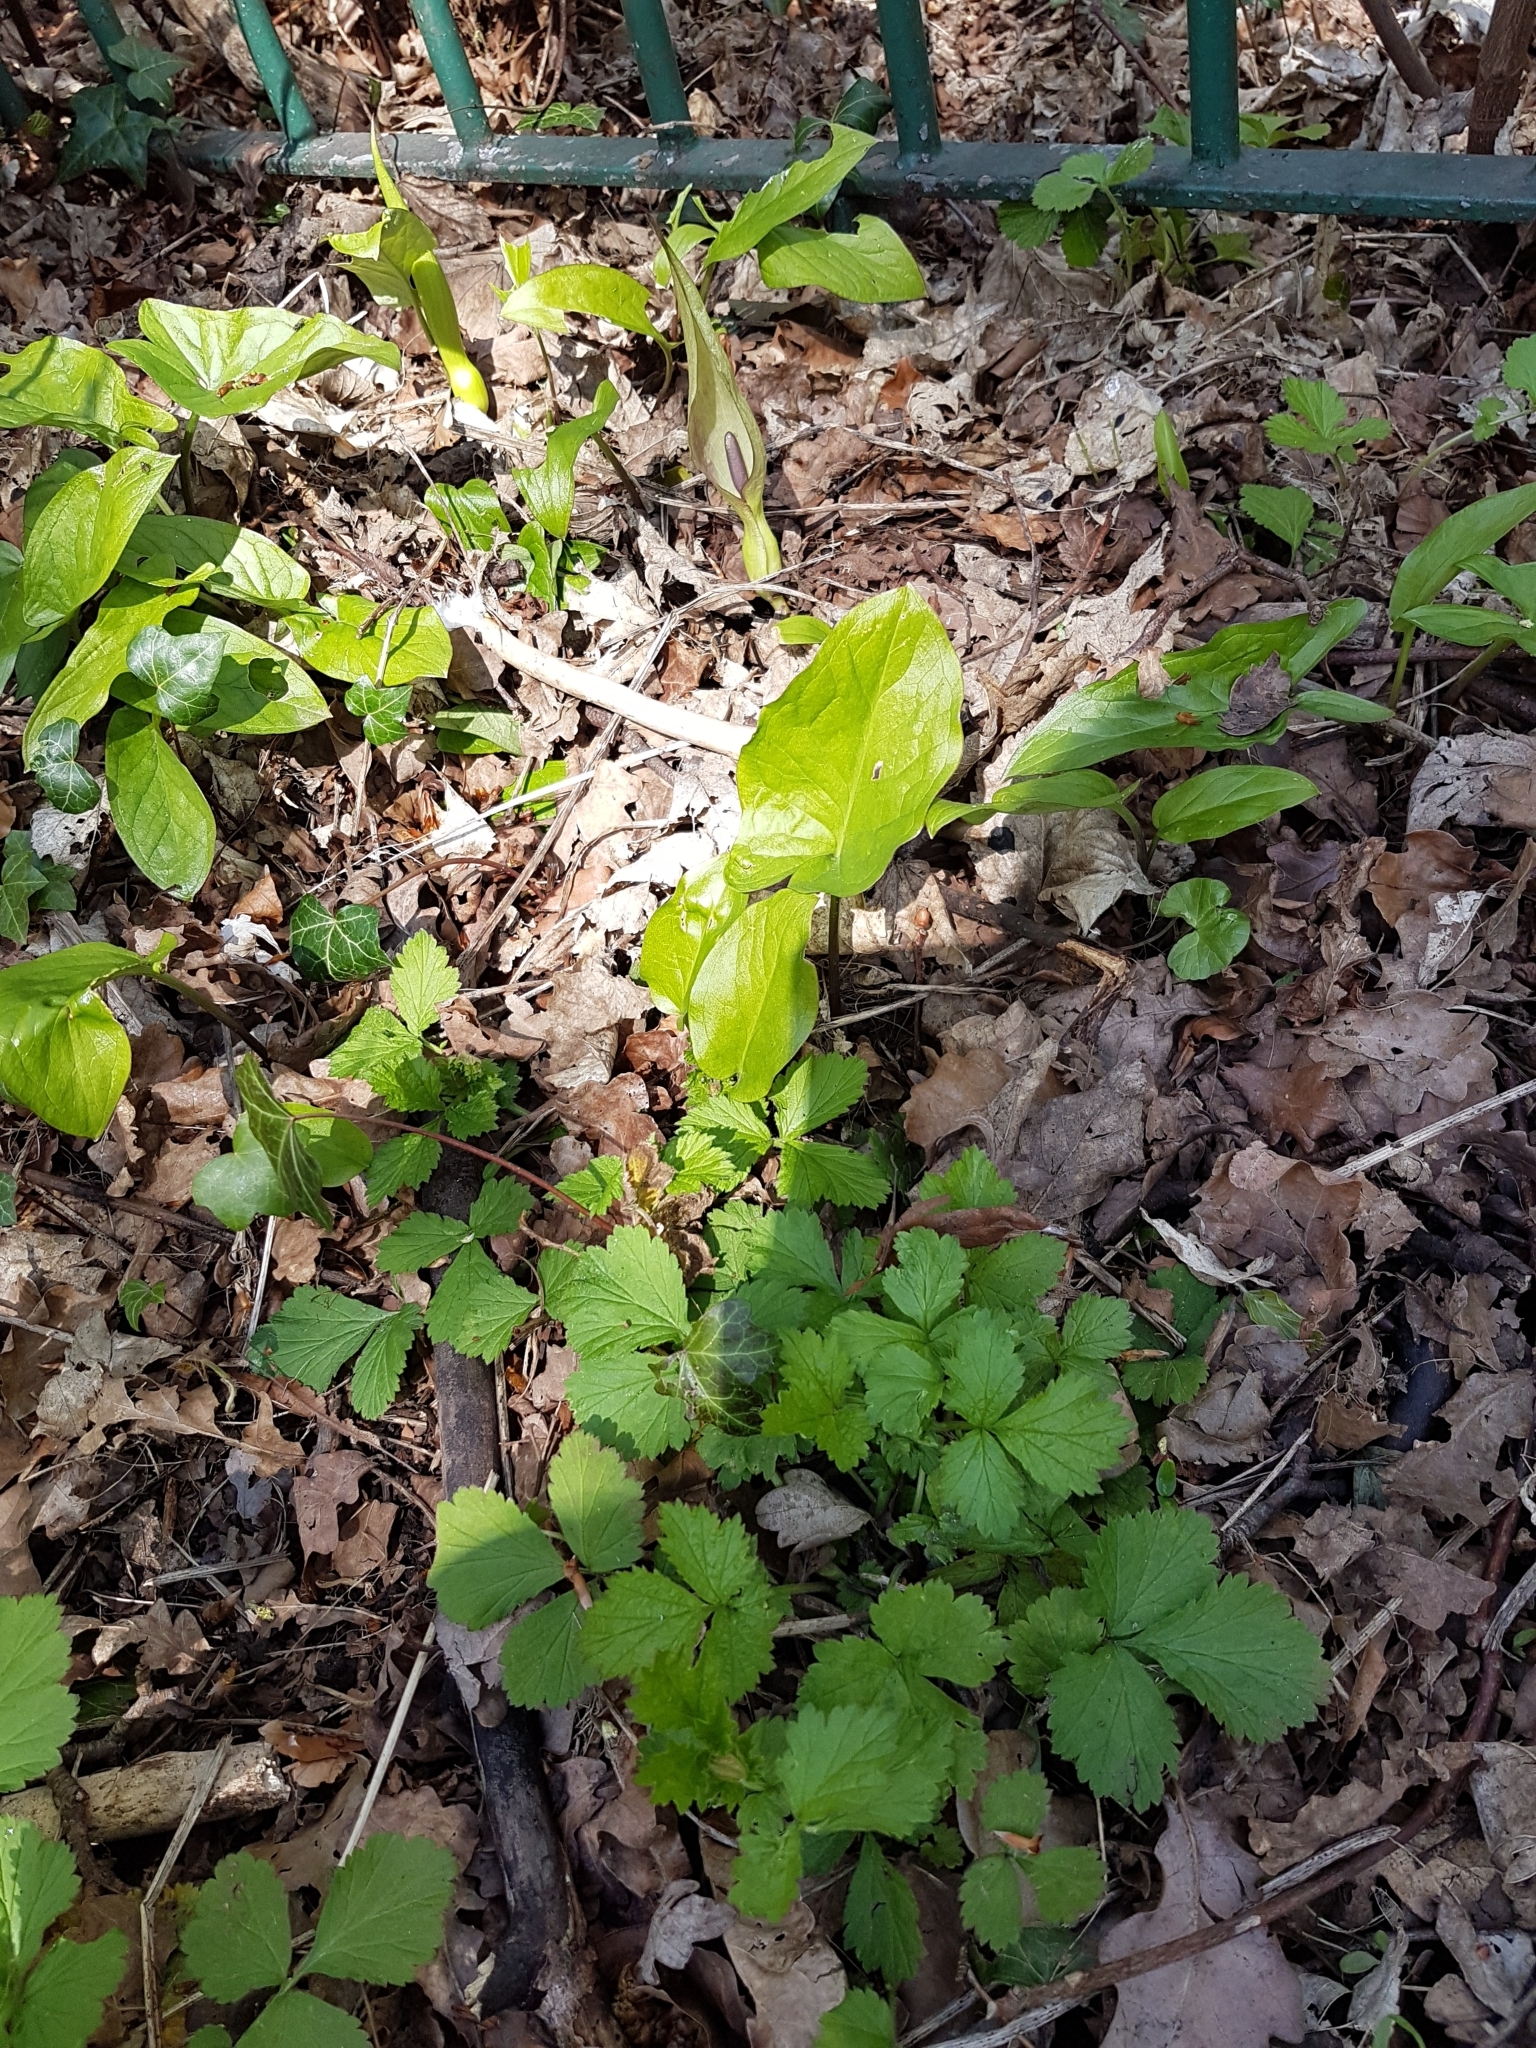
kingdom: Plantae
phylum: Tracheophyta
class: Liliopsida
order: Alismatales
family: Araceae
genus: Arum
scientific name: Arum maculatum
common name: Lords-and-ladies
